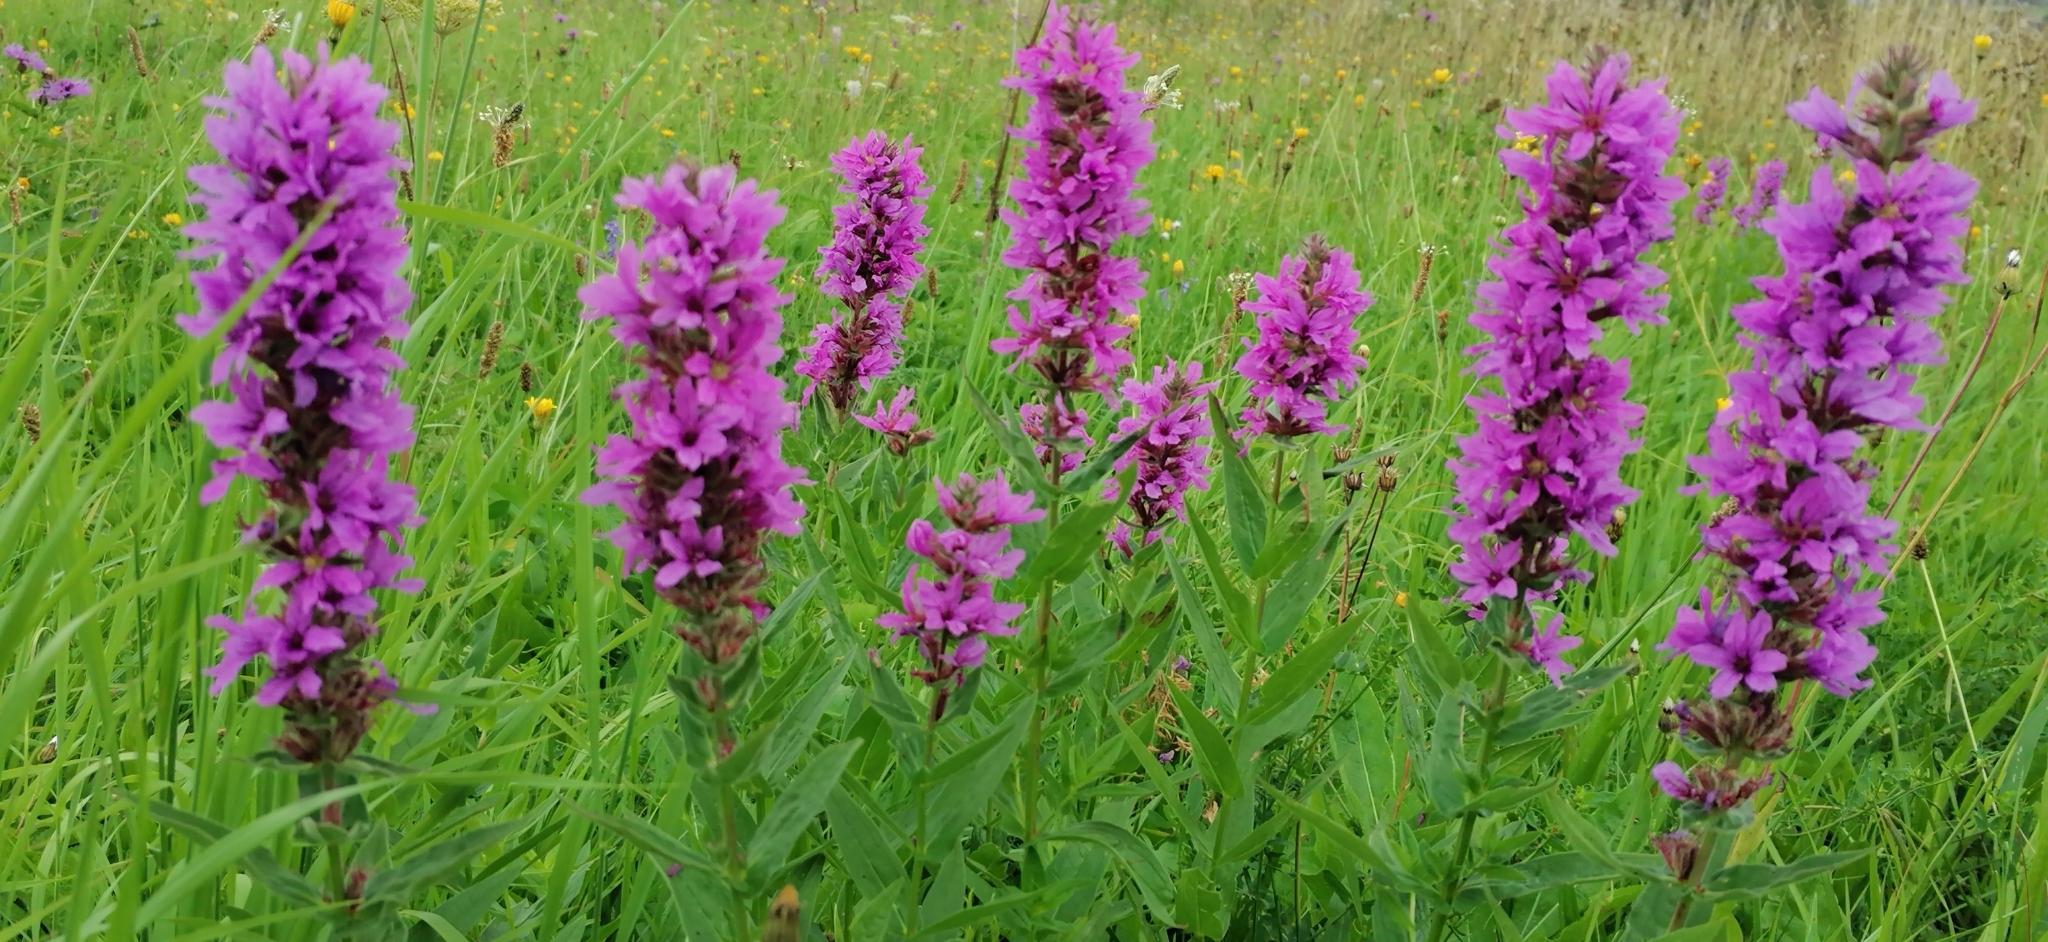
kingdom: Plantae
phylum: Tracheophyta
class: Magnoliopsida
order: Myrtales
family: Lythraceae
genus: Lythrum
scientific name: Lythrum salicaria
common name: Purple loosestrife
